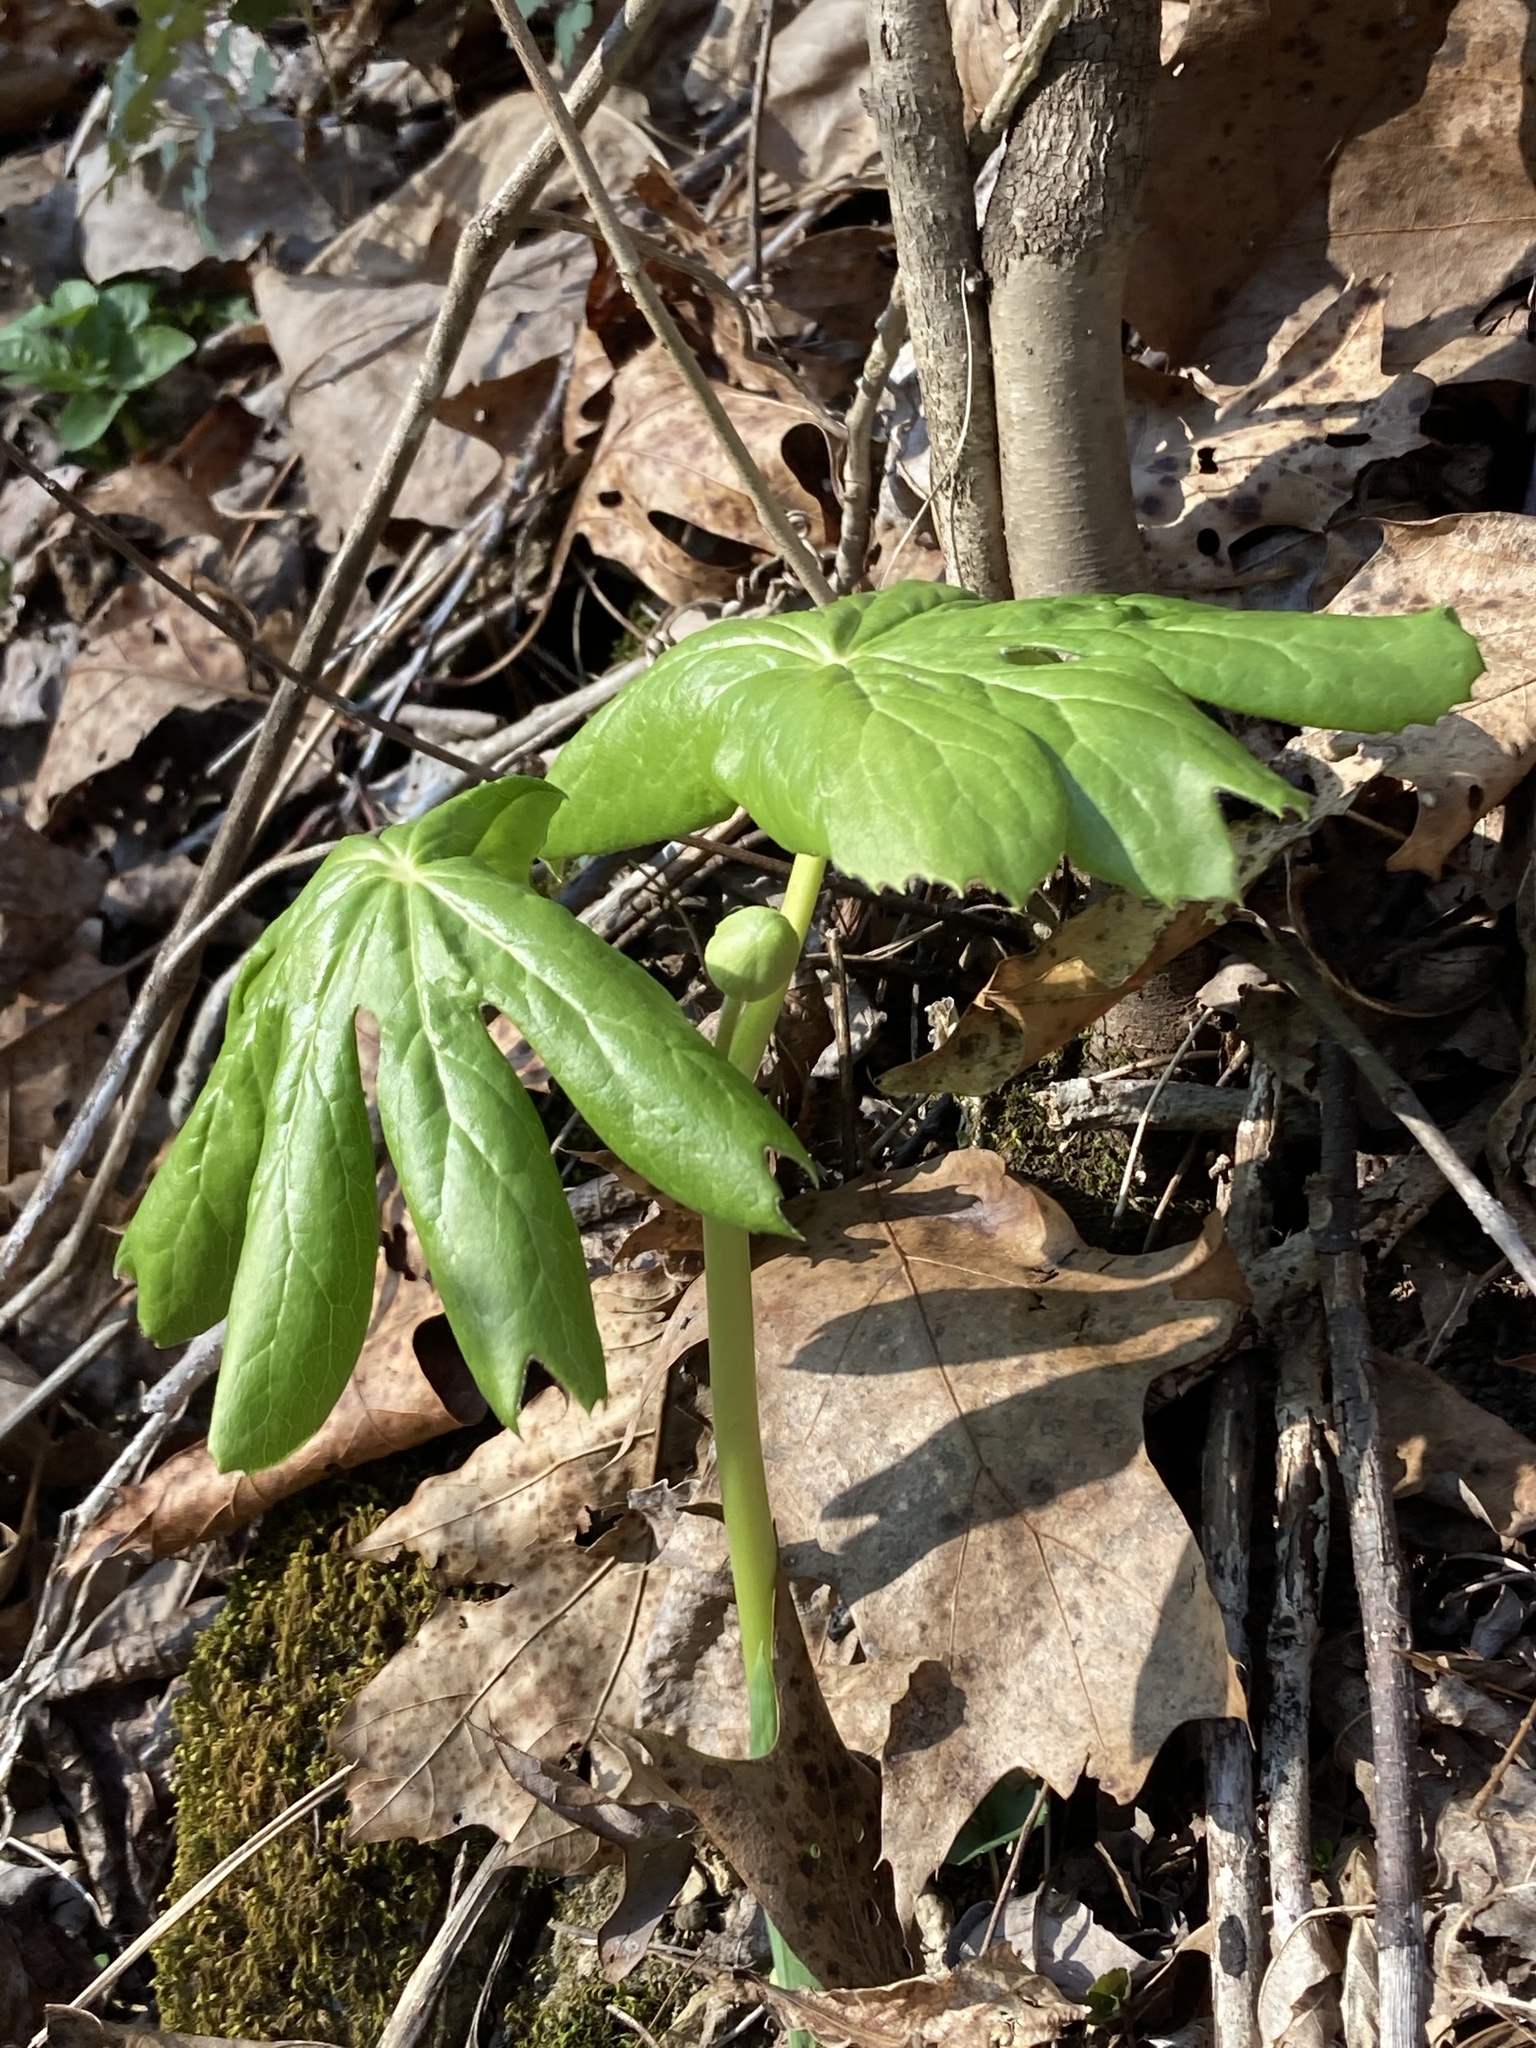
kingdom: Plantae
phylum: Tracheophyta
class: Magnoliopsida
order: Ranunculales
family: Berberidaceae
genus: Podophyllum
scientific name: Podophyllum peltatum
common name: Wild mandrake
